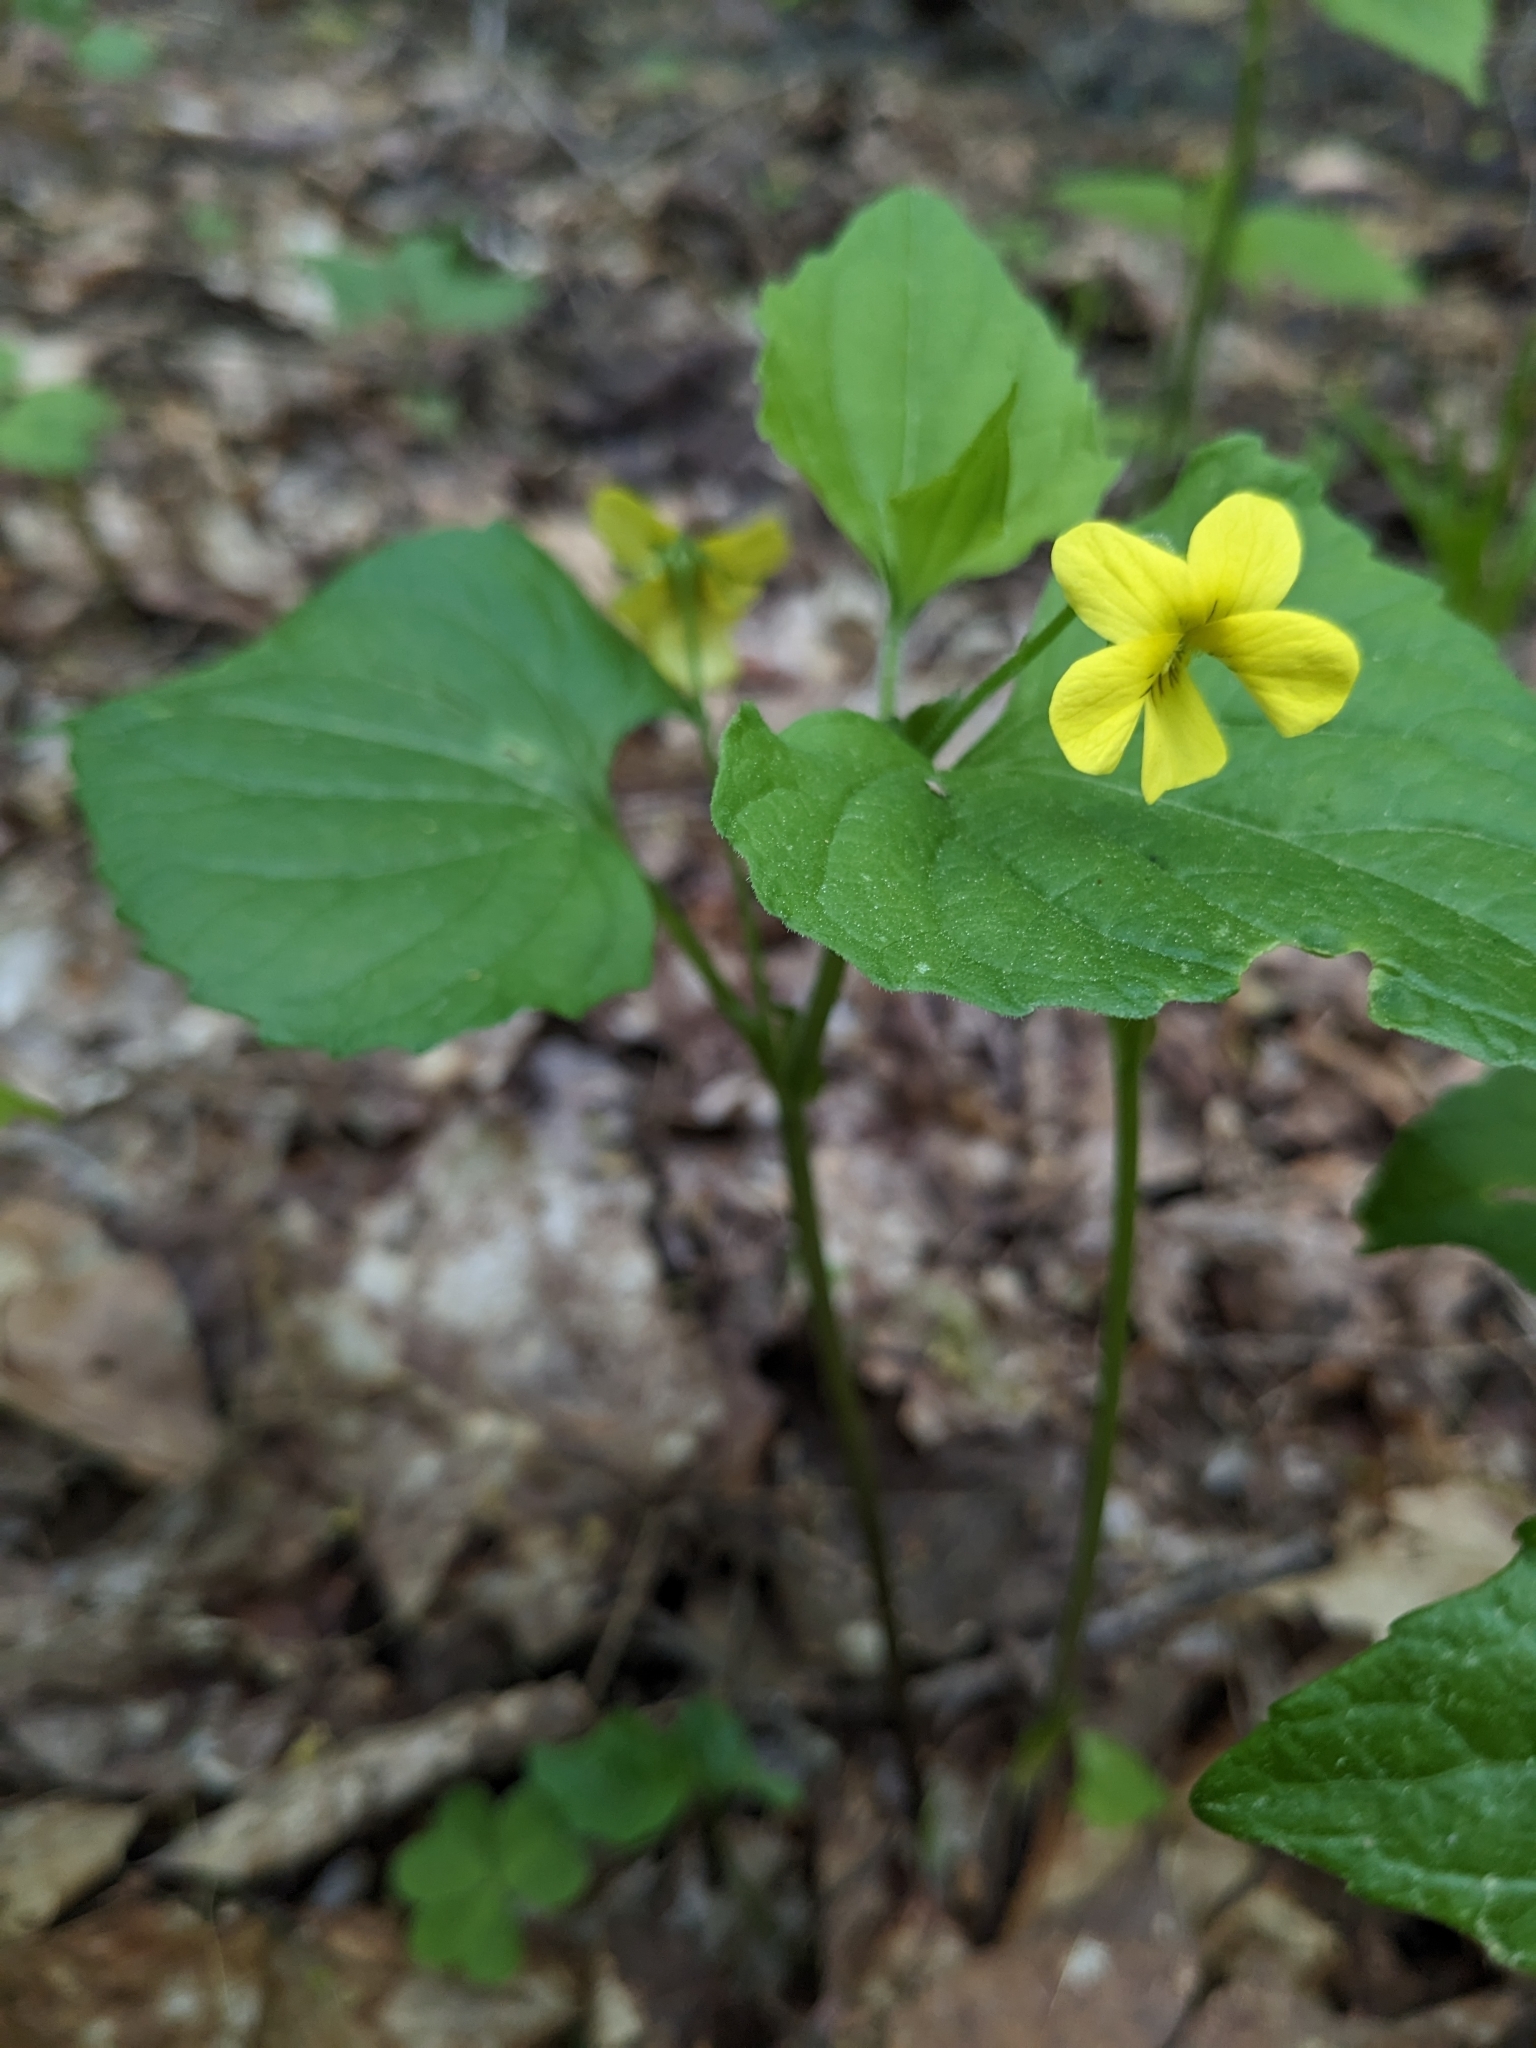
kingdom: Plantae
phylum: Tracheophyta
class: Magnoliopsida
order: Malpighiales
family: Violaceae
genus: Viola
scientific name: Viola eriocarpa
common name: Smooth yellow violet
